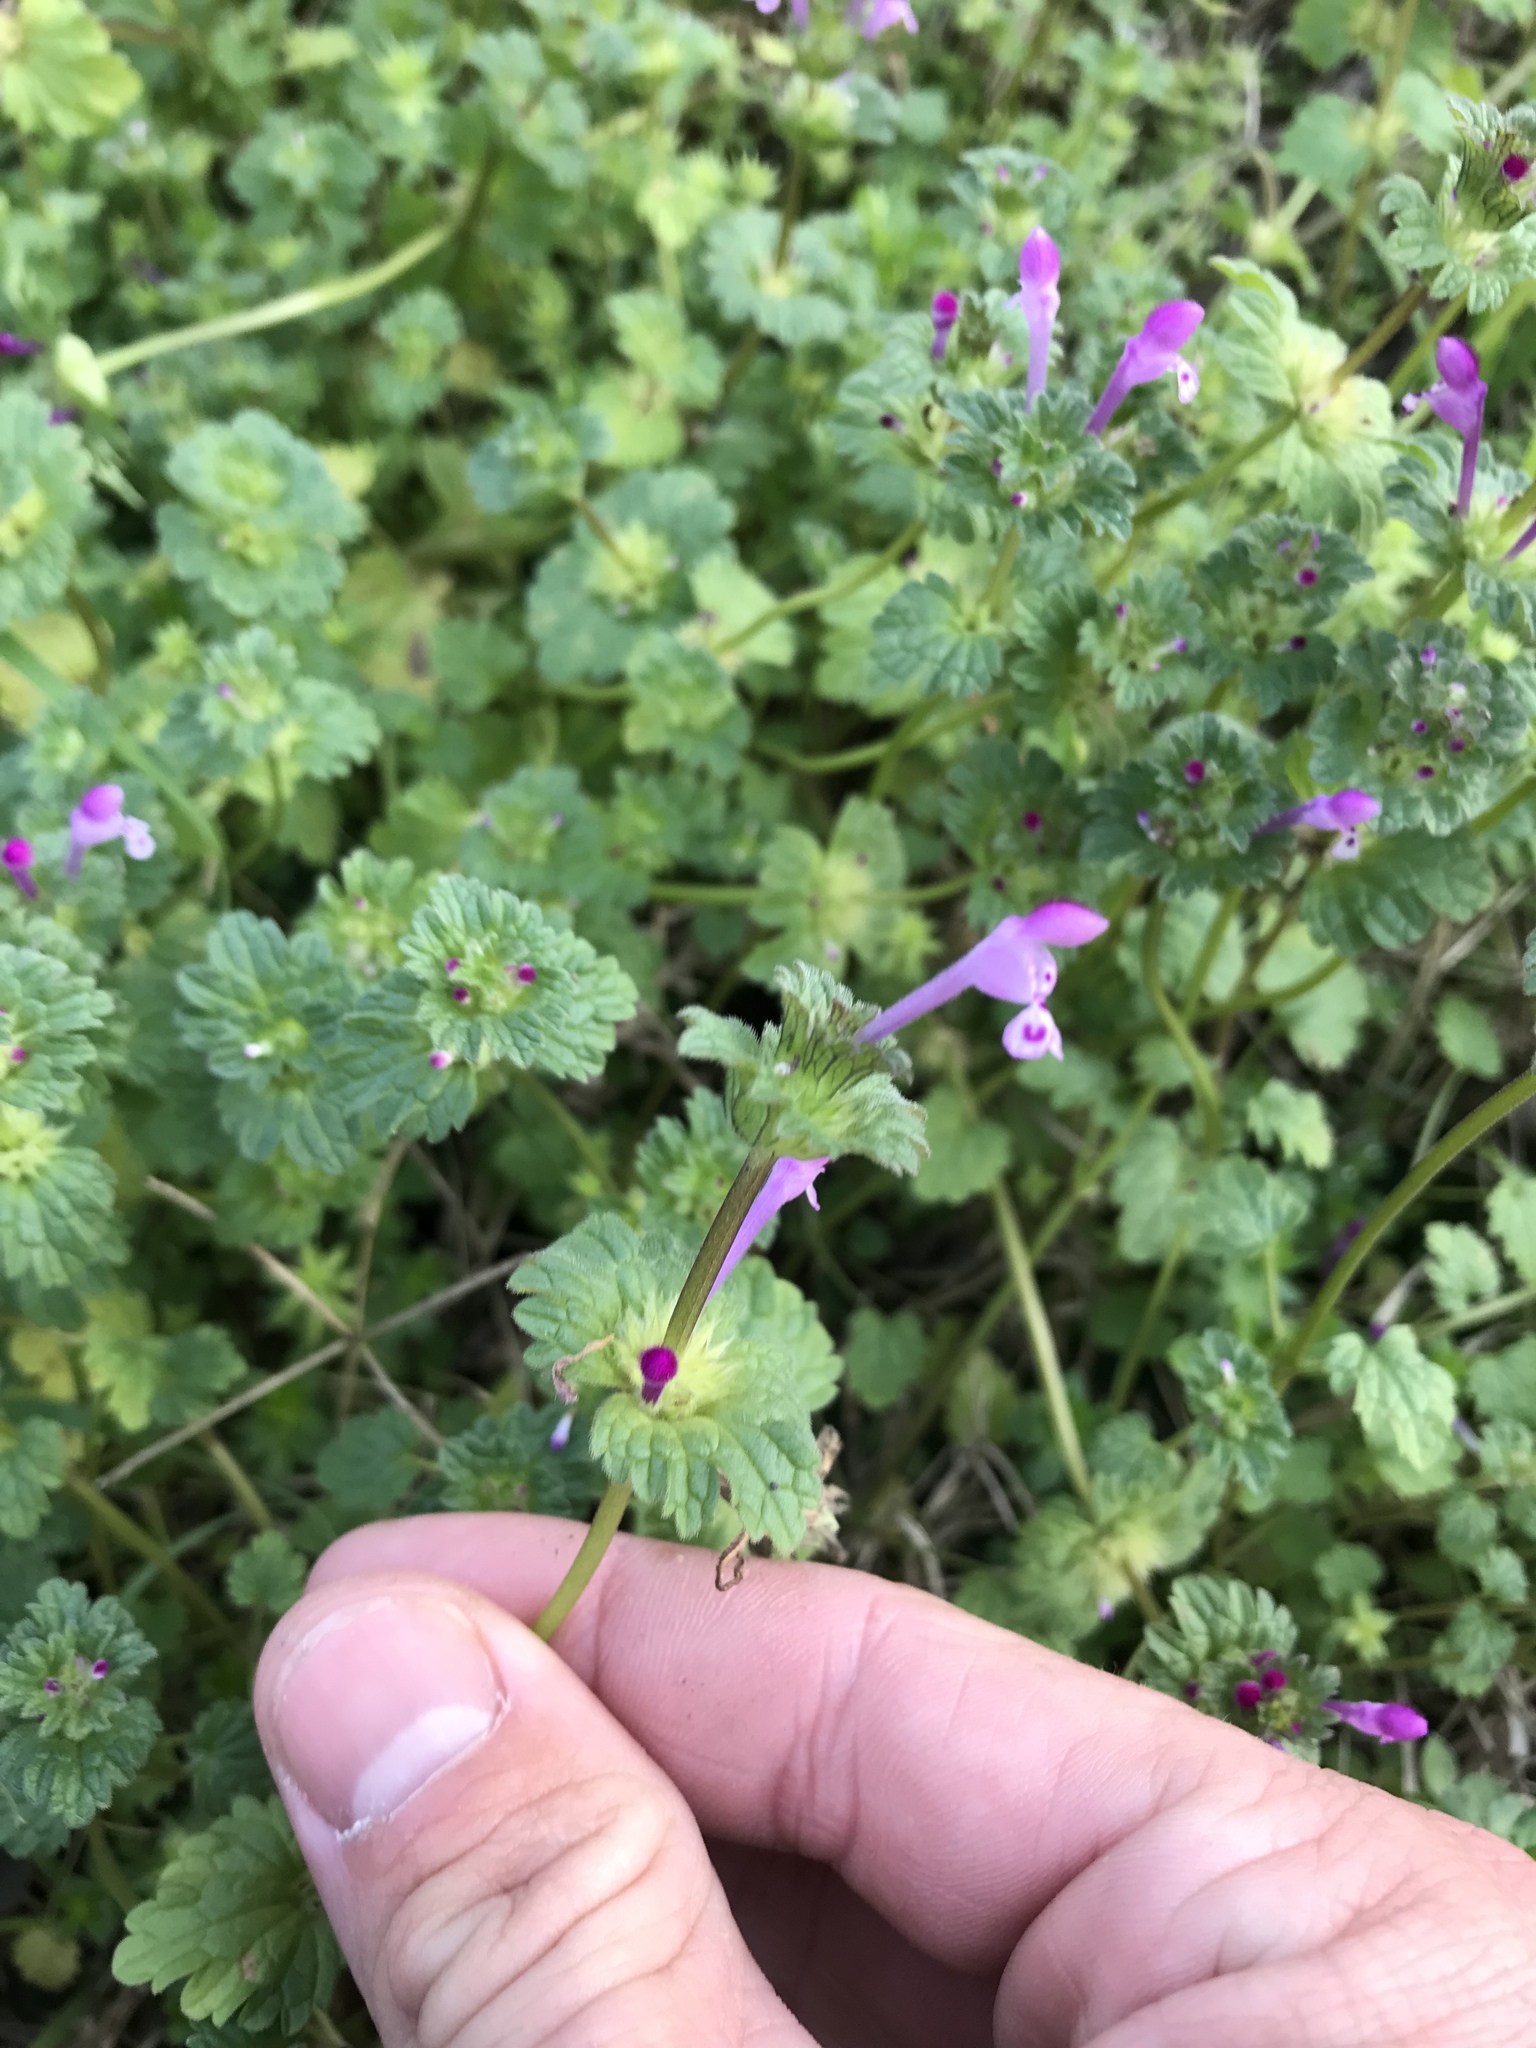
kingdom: Plantae
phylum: Tracheophyta
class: Magnoliopsida
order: Lamiales
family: Lamiaceae
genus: Lamium
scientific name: Lamium amplexicaule
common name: Henbit dead-nettle
